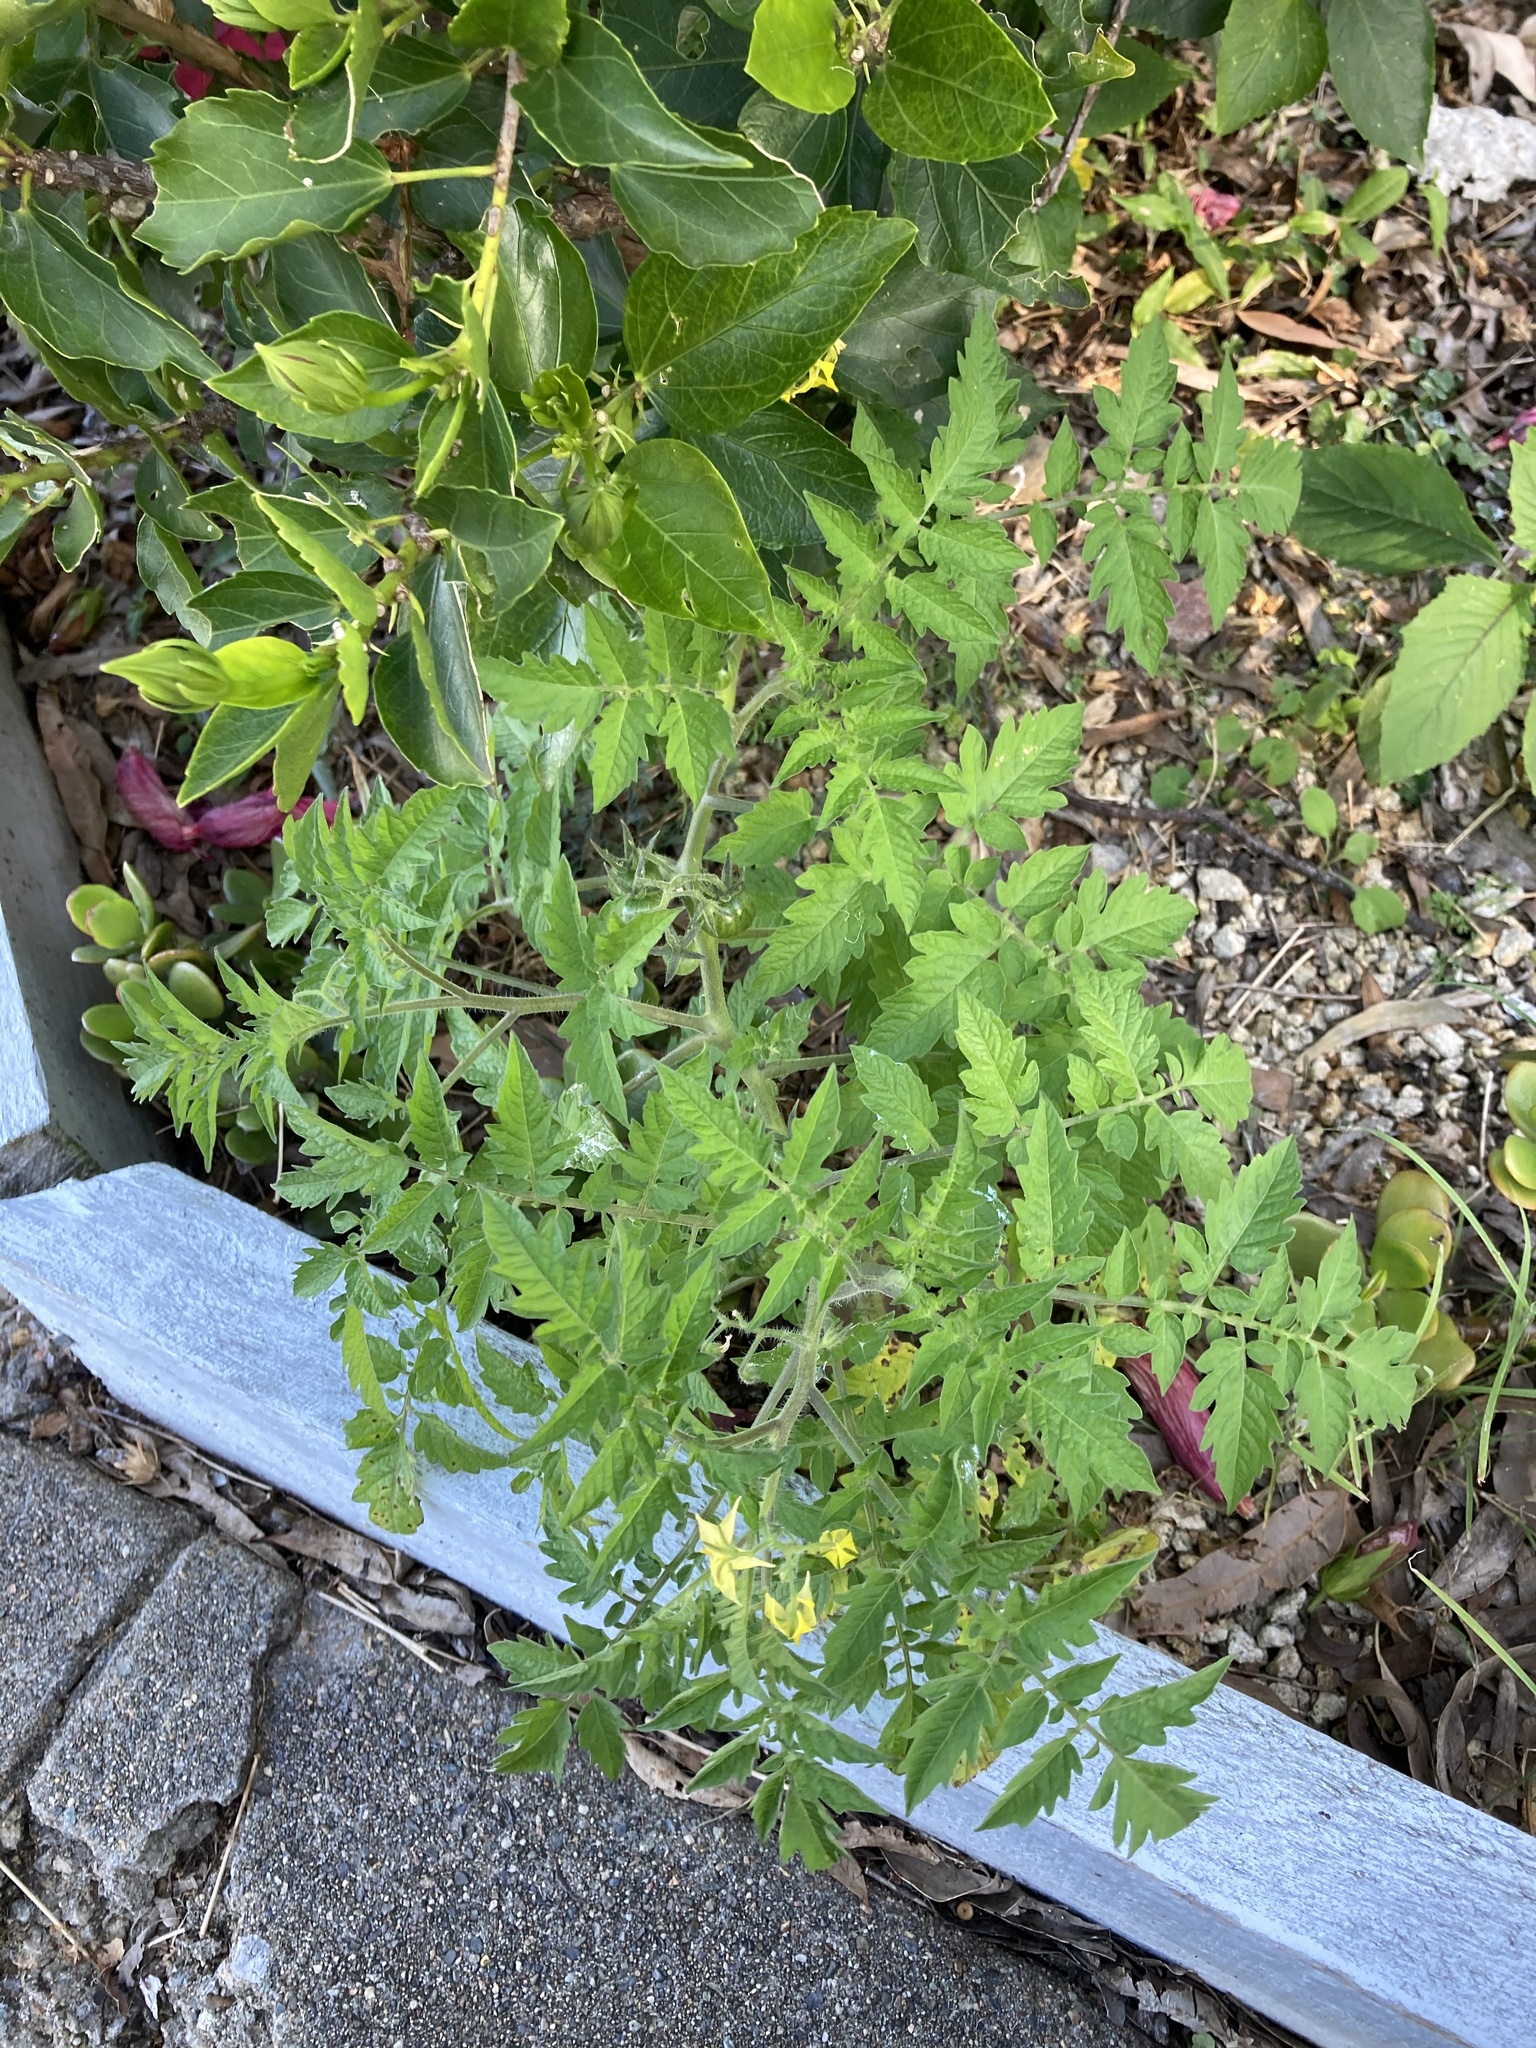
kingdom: Plantae
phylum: Tracheophyta
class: Magnoliopsida
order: Solanales
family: Solanaceae
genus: Solanum
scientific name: Solanum lycopersicum
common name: Garden tomato
